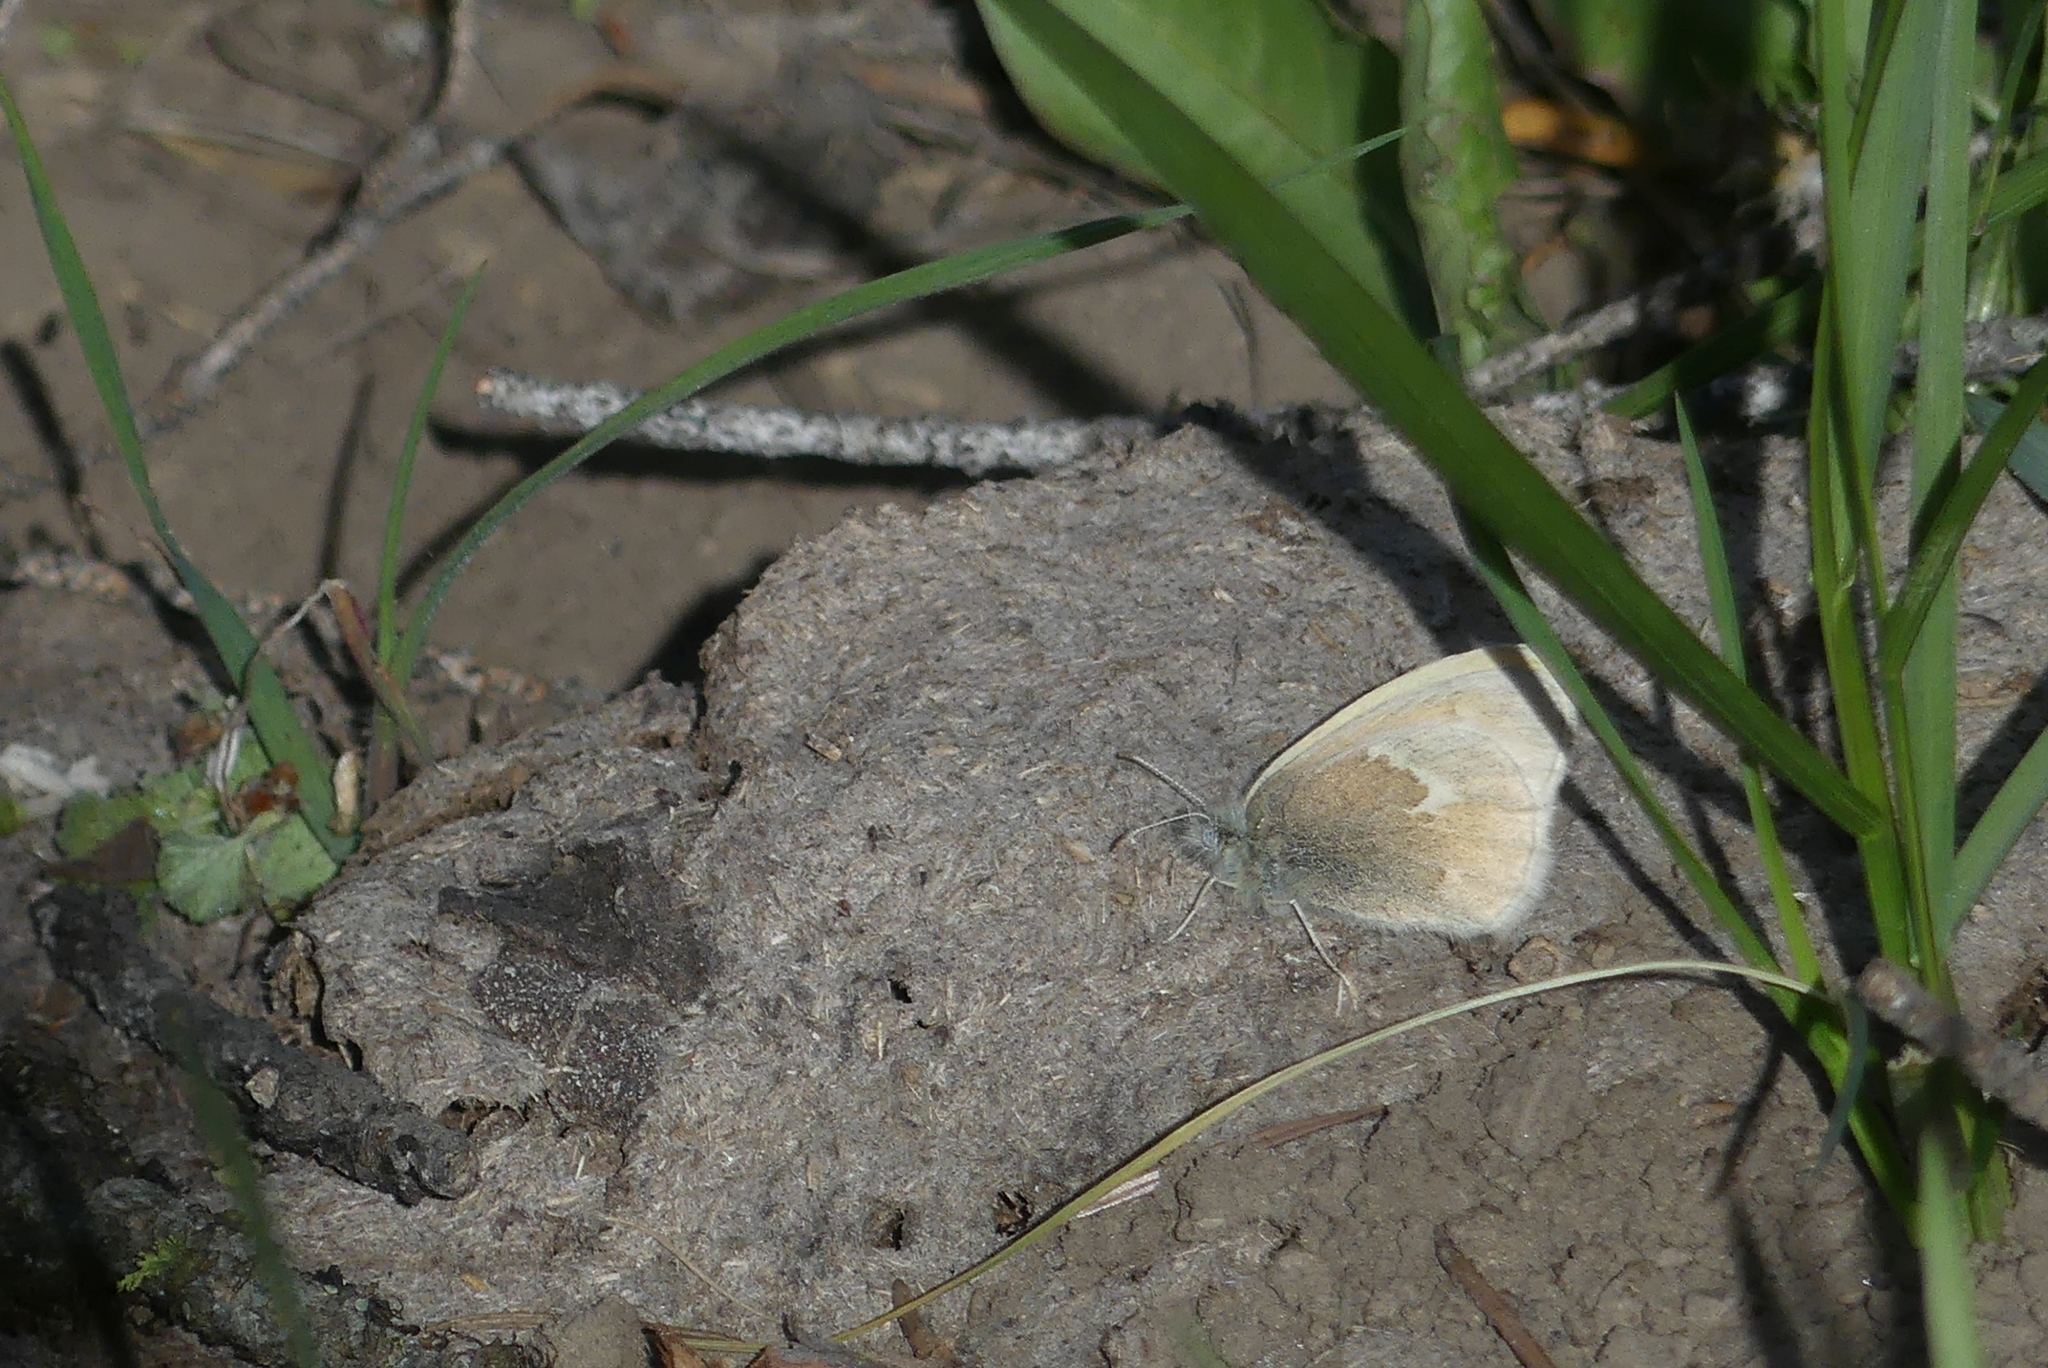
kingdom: Animalia
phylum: Arthropoda
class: Insecta
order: Lepidoptera
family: Nymphalidae
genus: Coenonympha
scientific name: Coenonympha california
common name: Common ringlet
